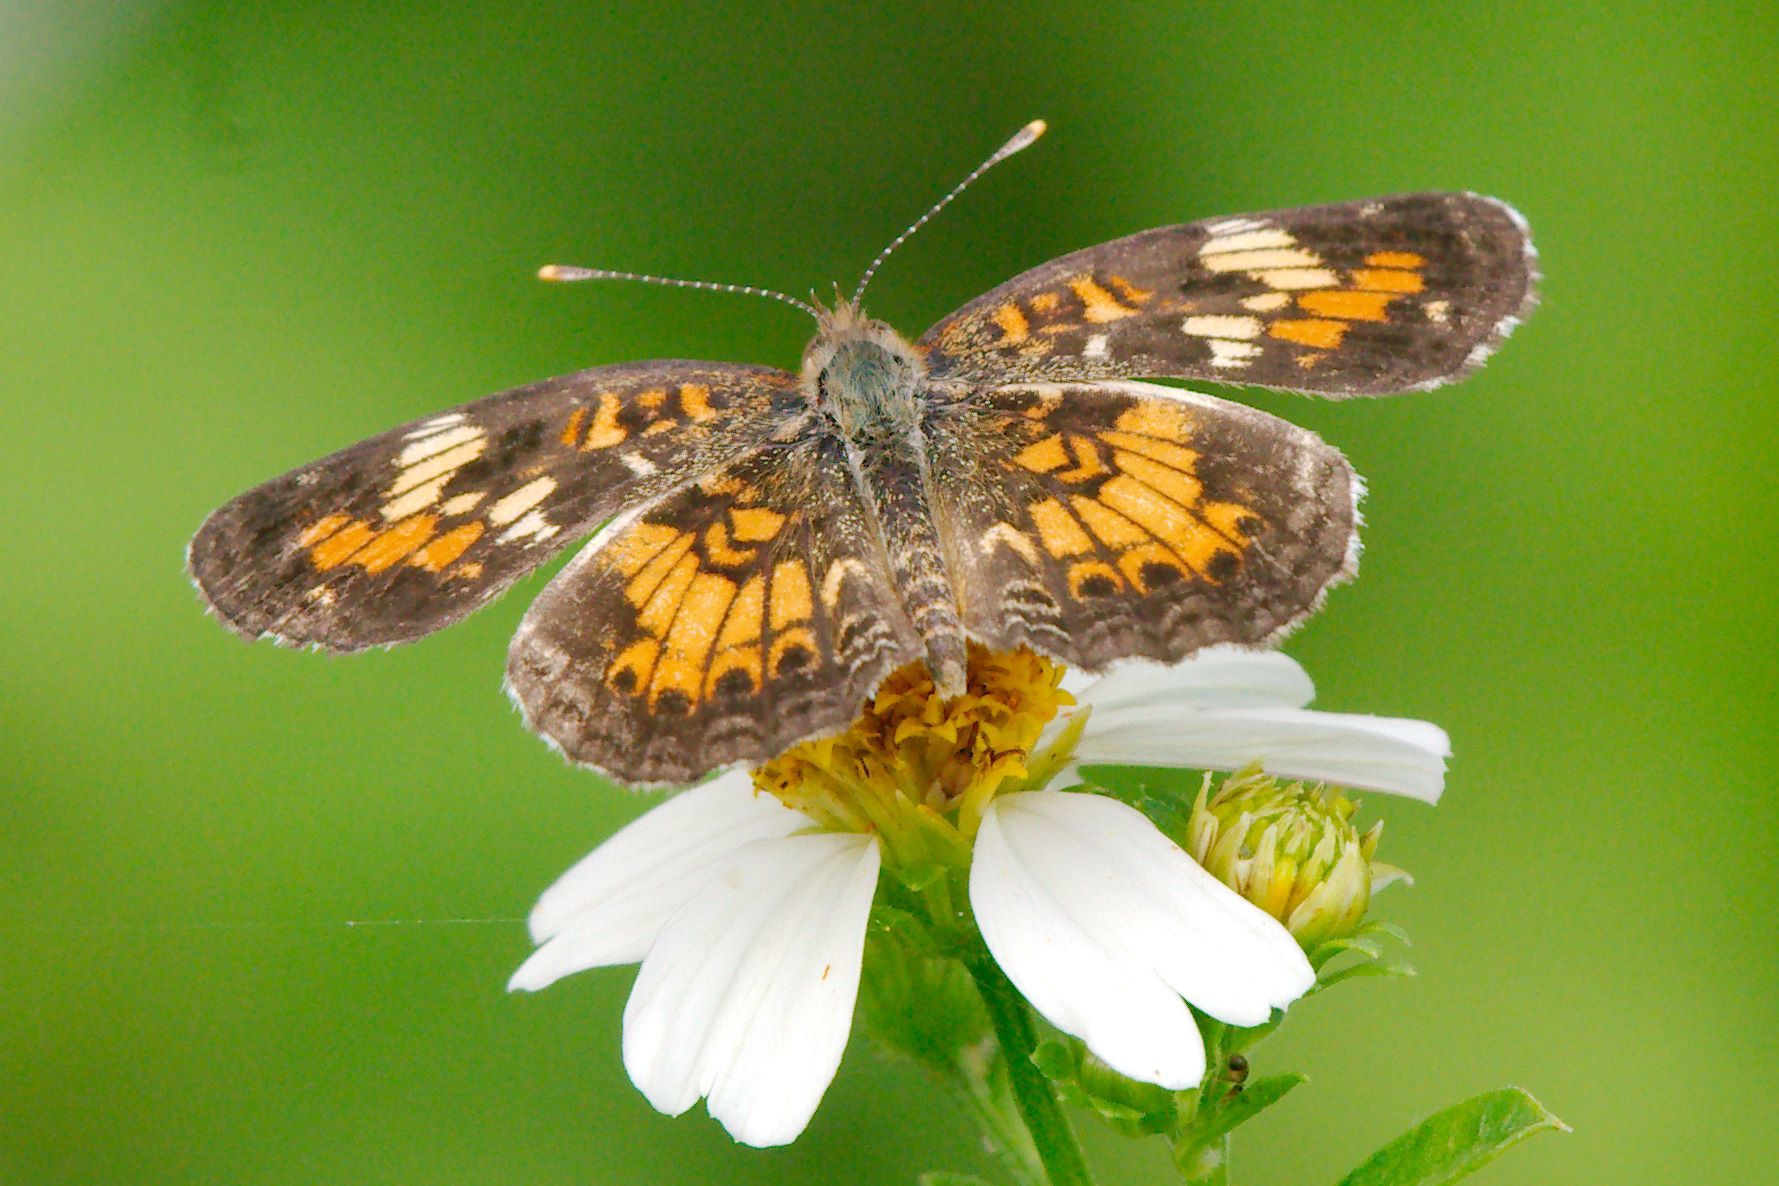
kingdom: Animalia
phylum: Arthropoda
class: Insecta
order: Lepidoptera
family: Nymphalidae
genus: Phyciodes
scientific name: Phyciodes phaon
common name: Phaon crescent
